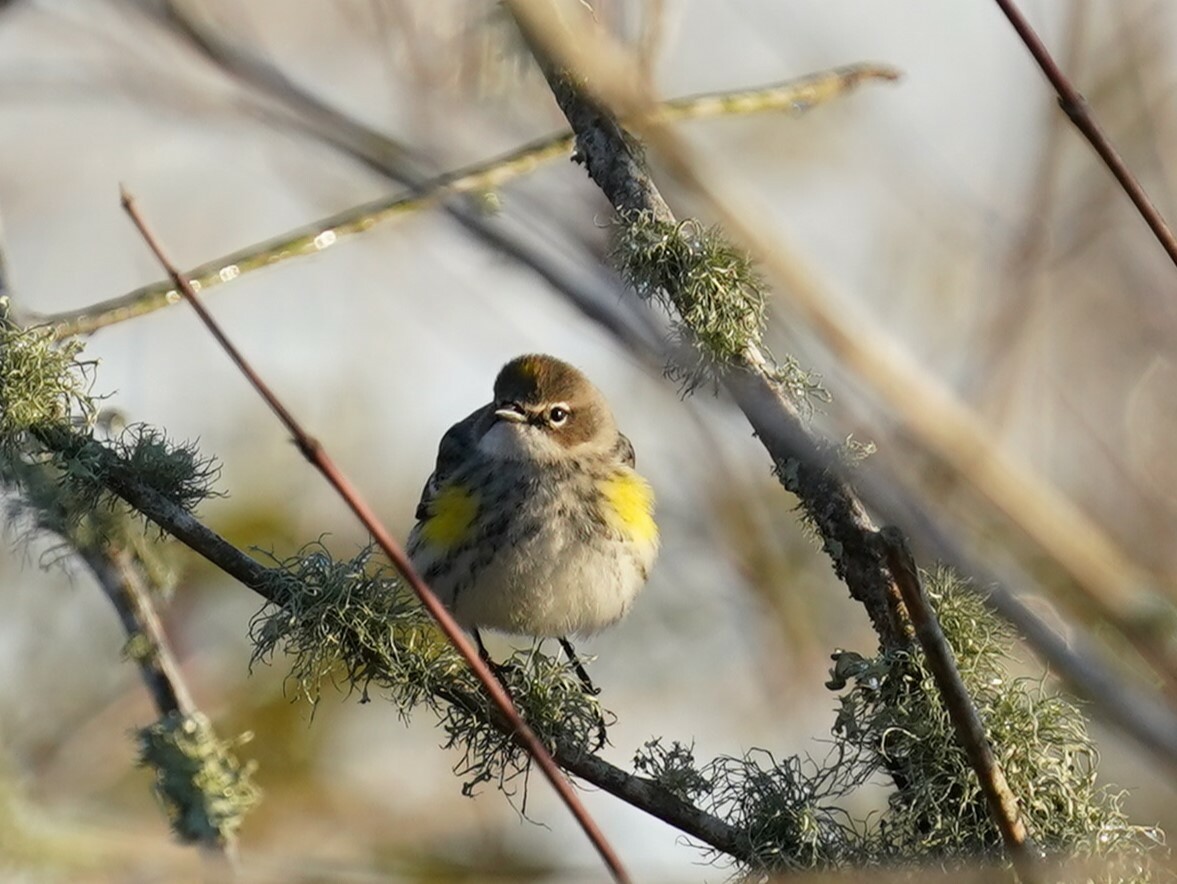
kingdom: Animalia
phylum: Chordata
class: Aves
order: Passeriformes
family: Parulidae
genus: Setophaga
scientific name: Setophaga coronata
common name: Myrtle warbler
